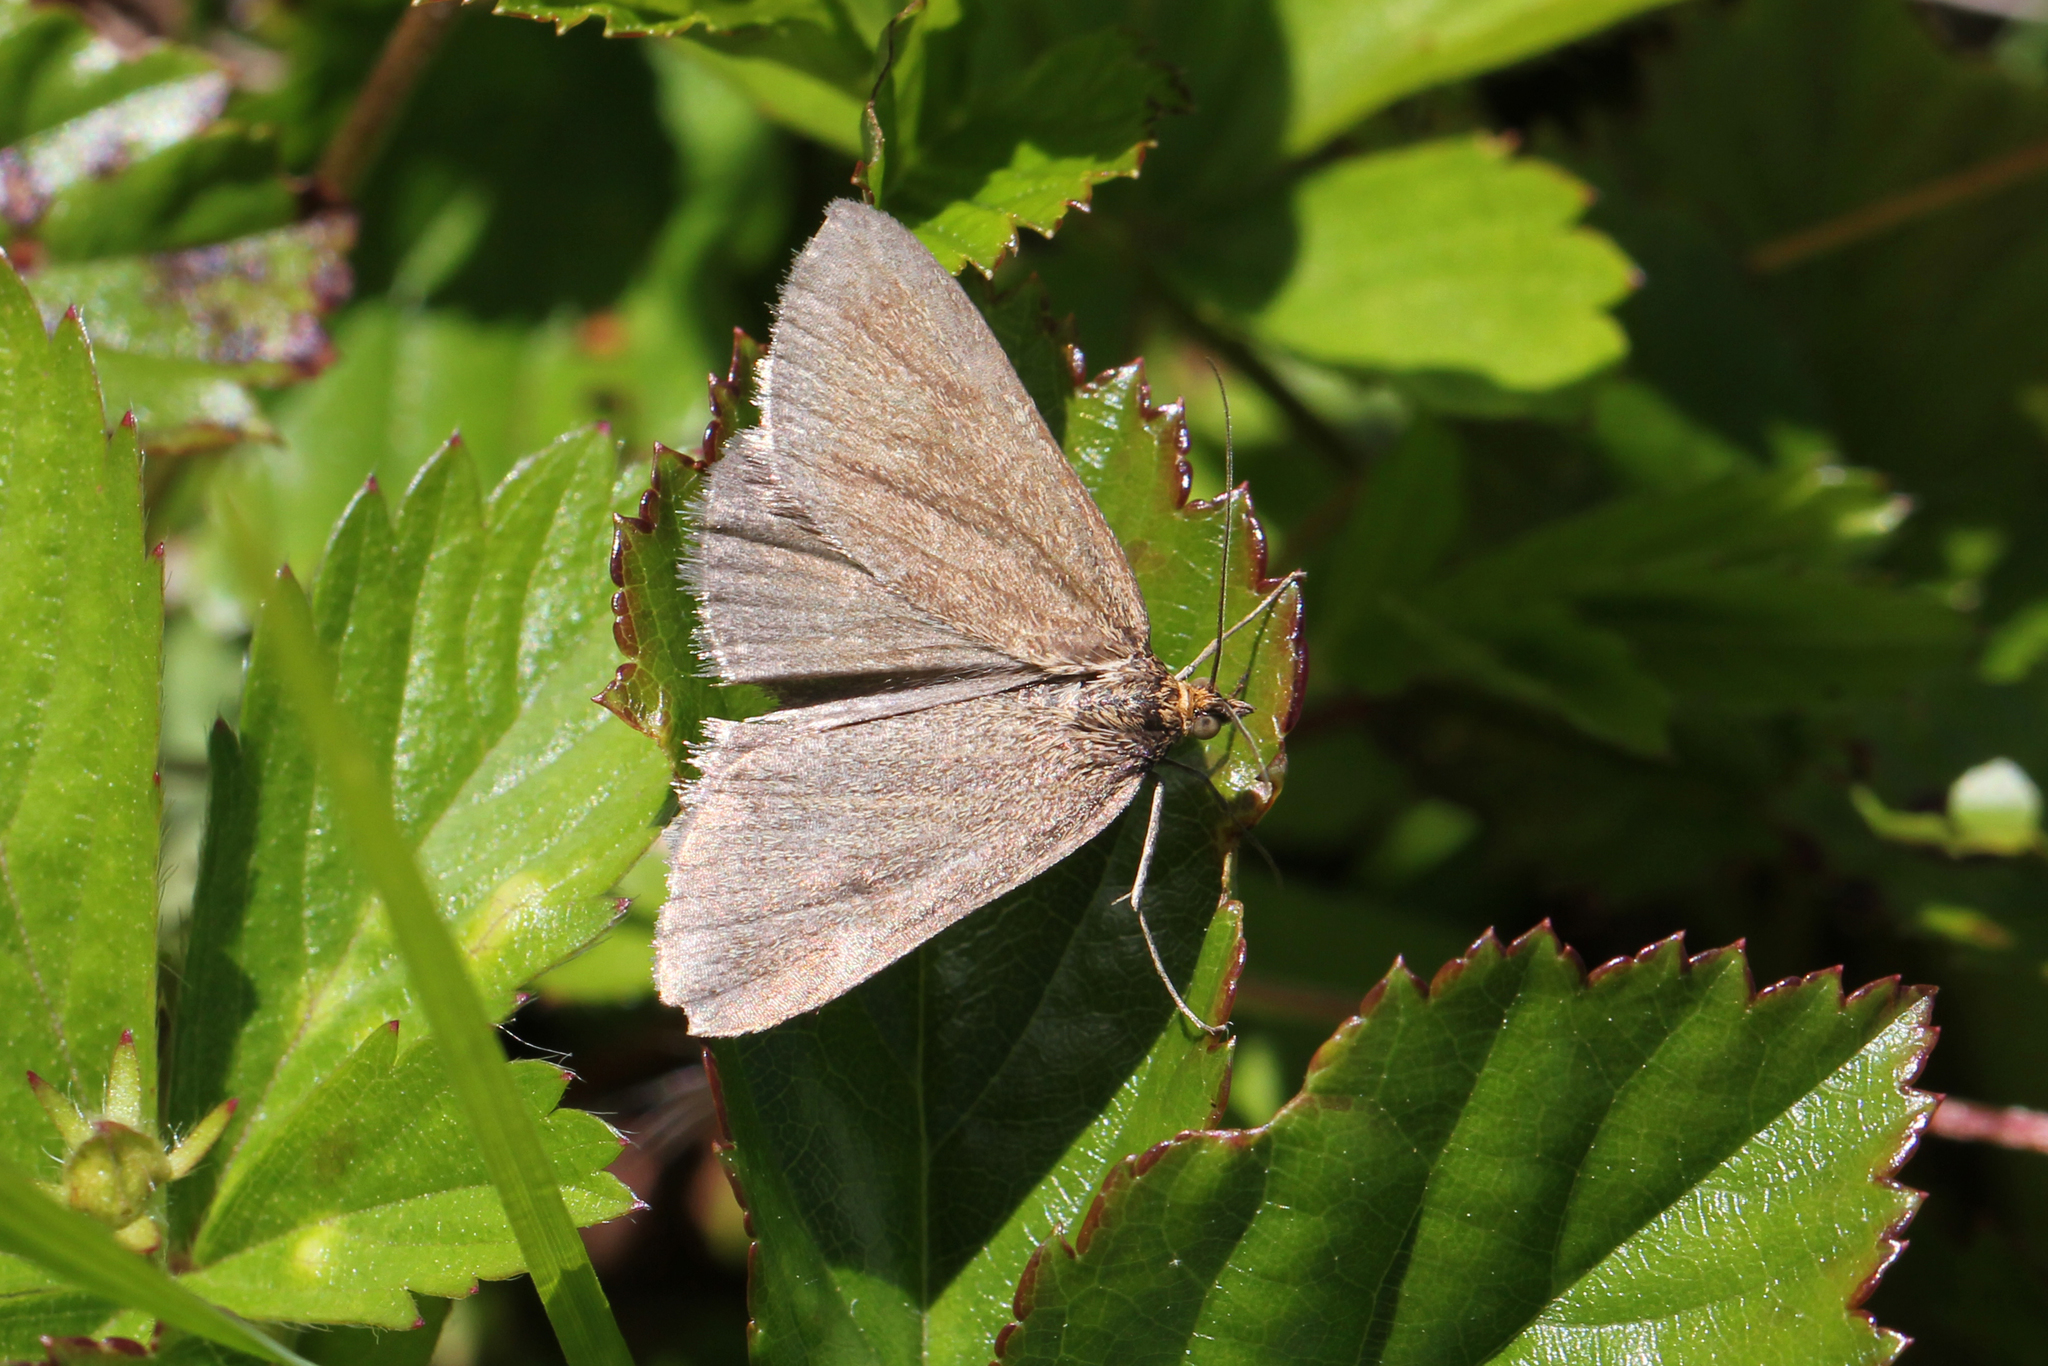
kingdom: Animalia
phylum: Arthropoda
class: Insecta
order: Lepidoptera
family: Geometridae
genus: Macaria
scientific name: Macaria argillacearia
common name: Mousy angle
